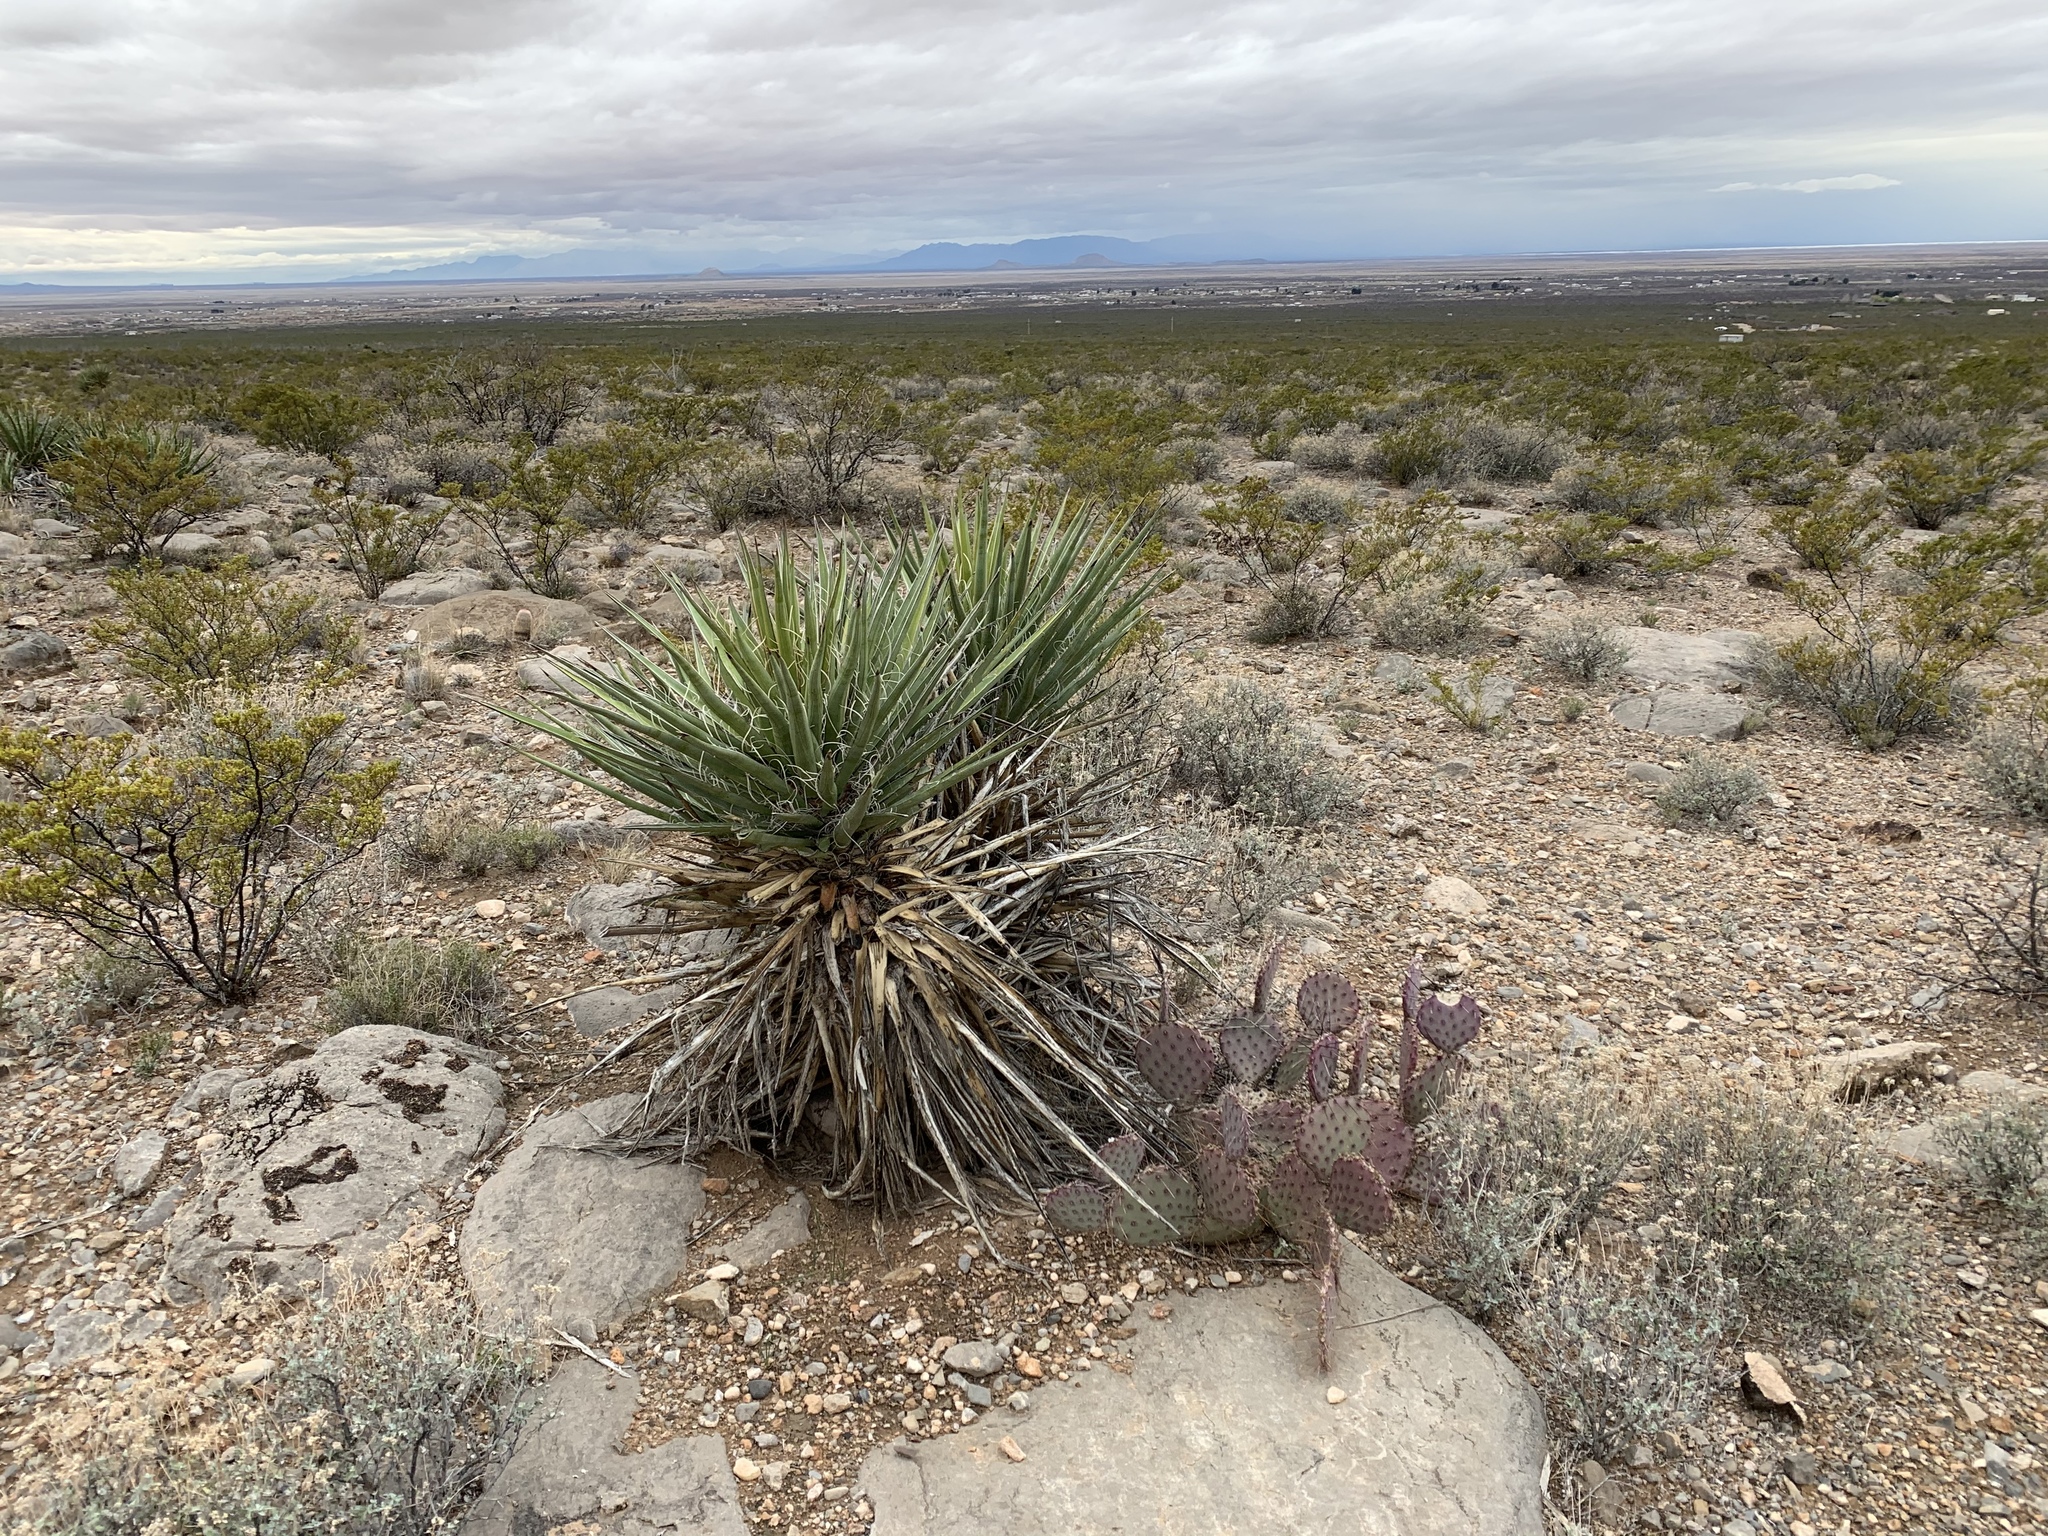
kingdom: Plantae
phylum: Tracheophyta
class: Liliopsida
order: Asparagales
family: Asparagaceae
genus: Yucca
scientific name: Yucca treculiana
